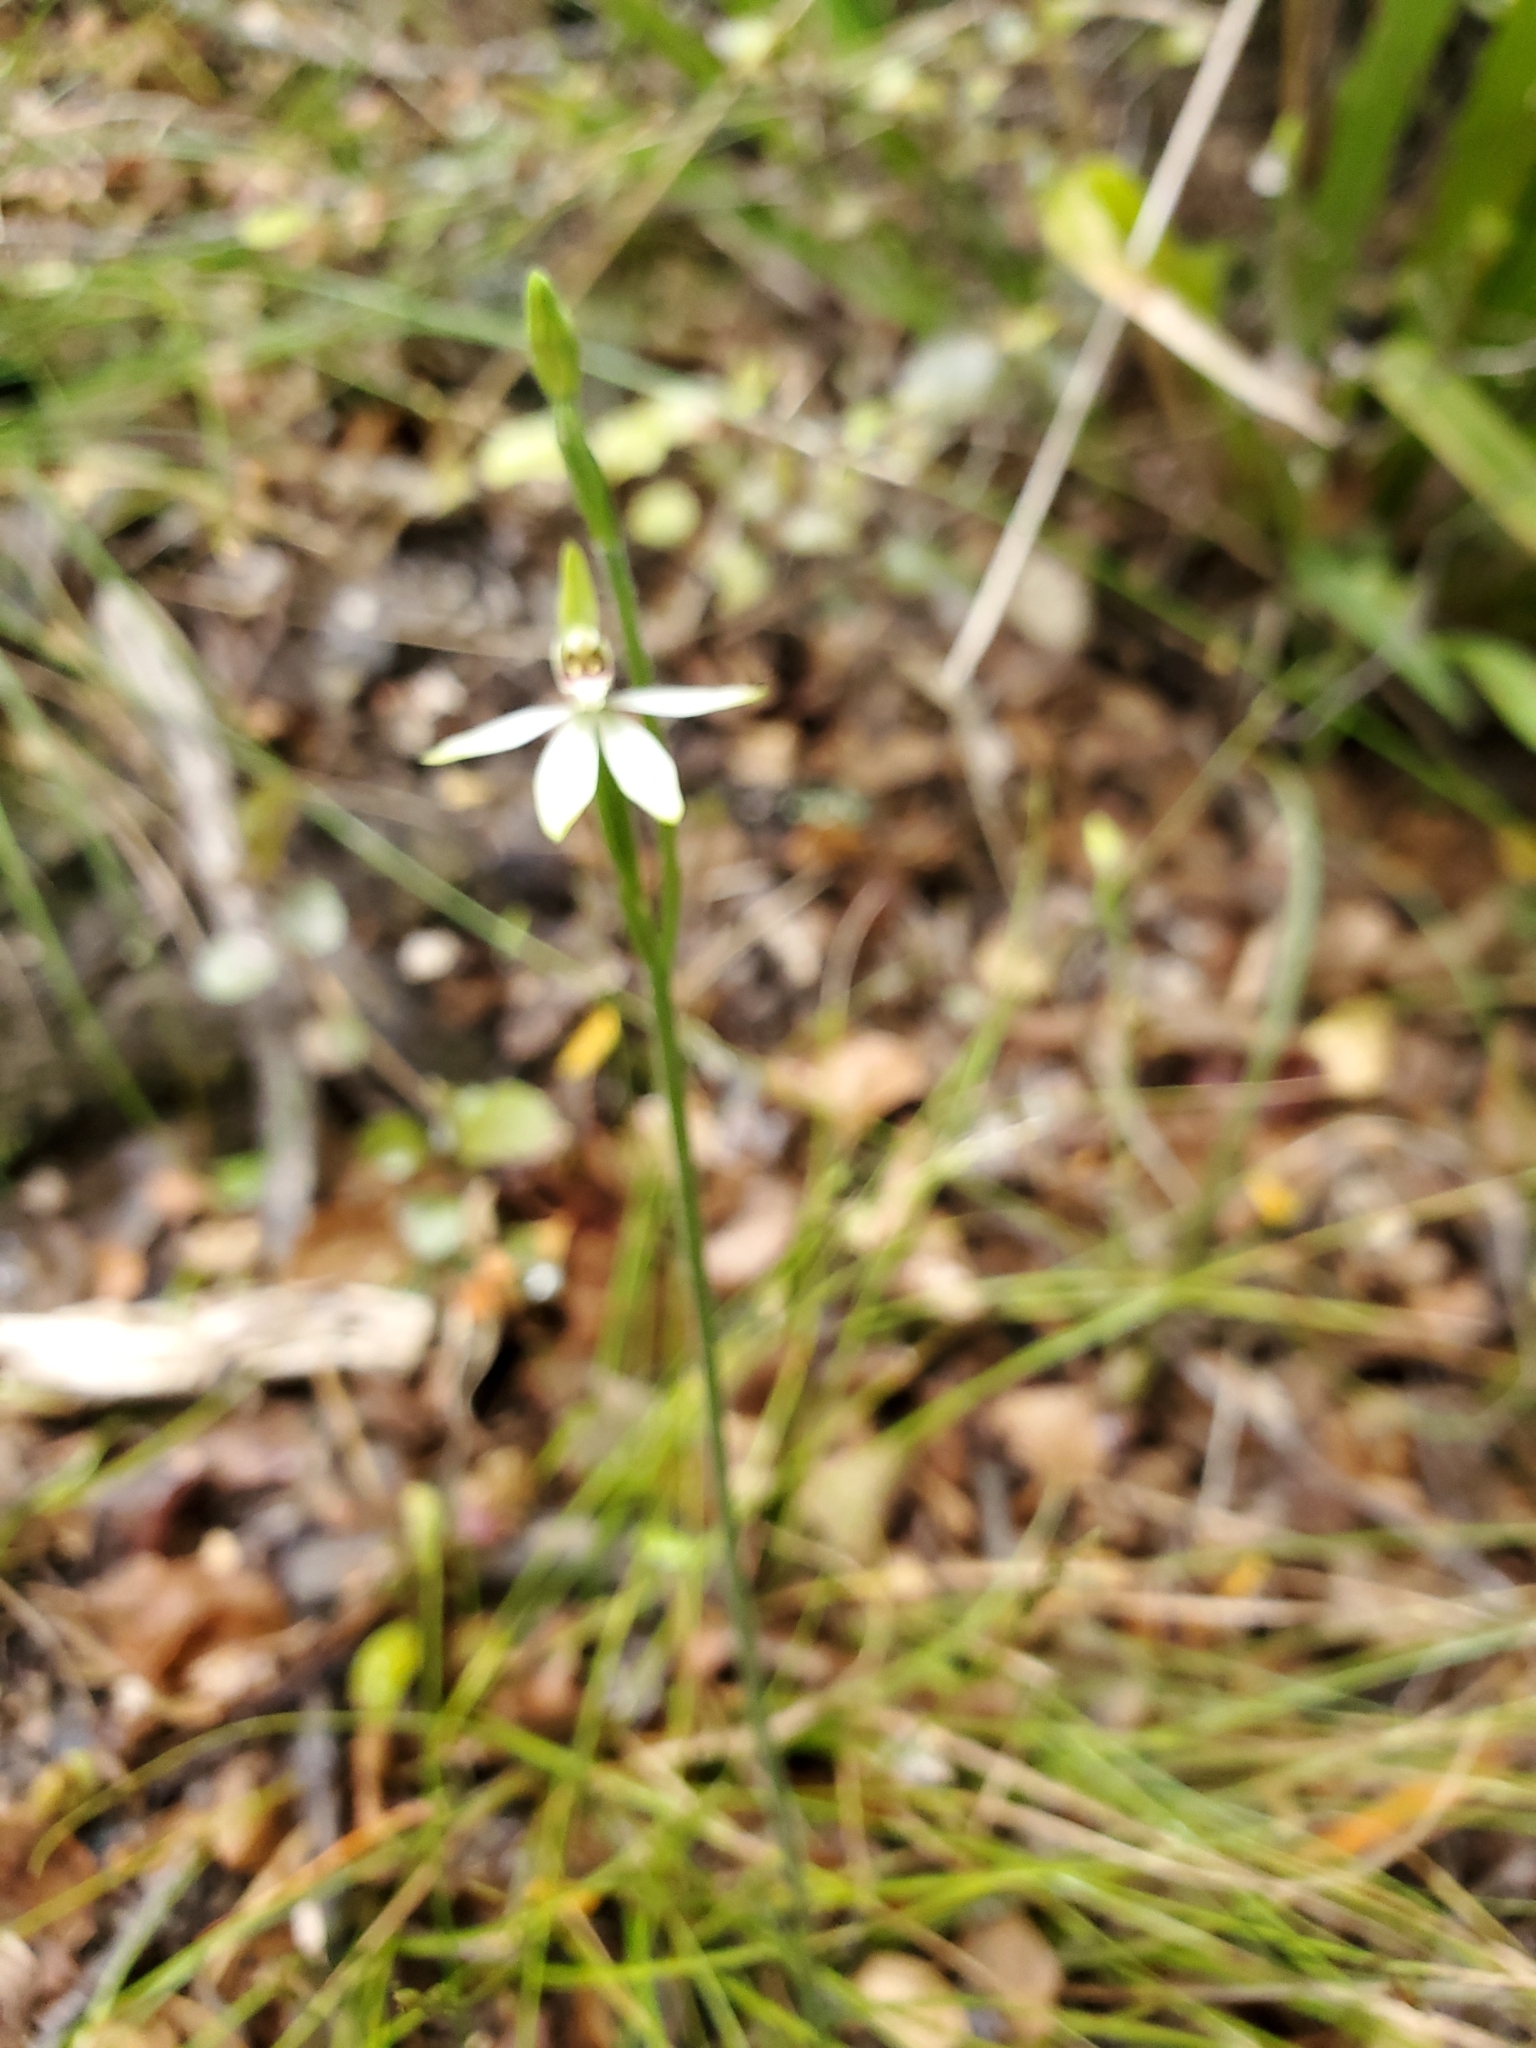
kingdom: Plantae
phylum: Tracheophyta
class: Liliopsida
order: Asparagales
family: Orchidaceae
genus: Caladenia
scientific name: Caladenia chlorostyla
